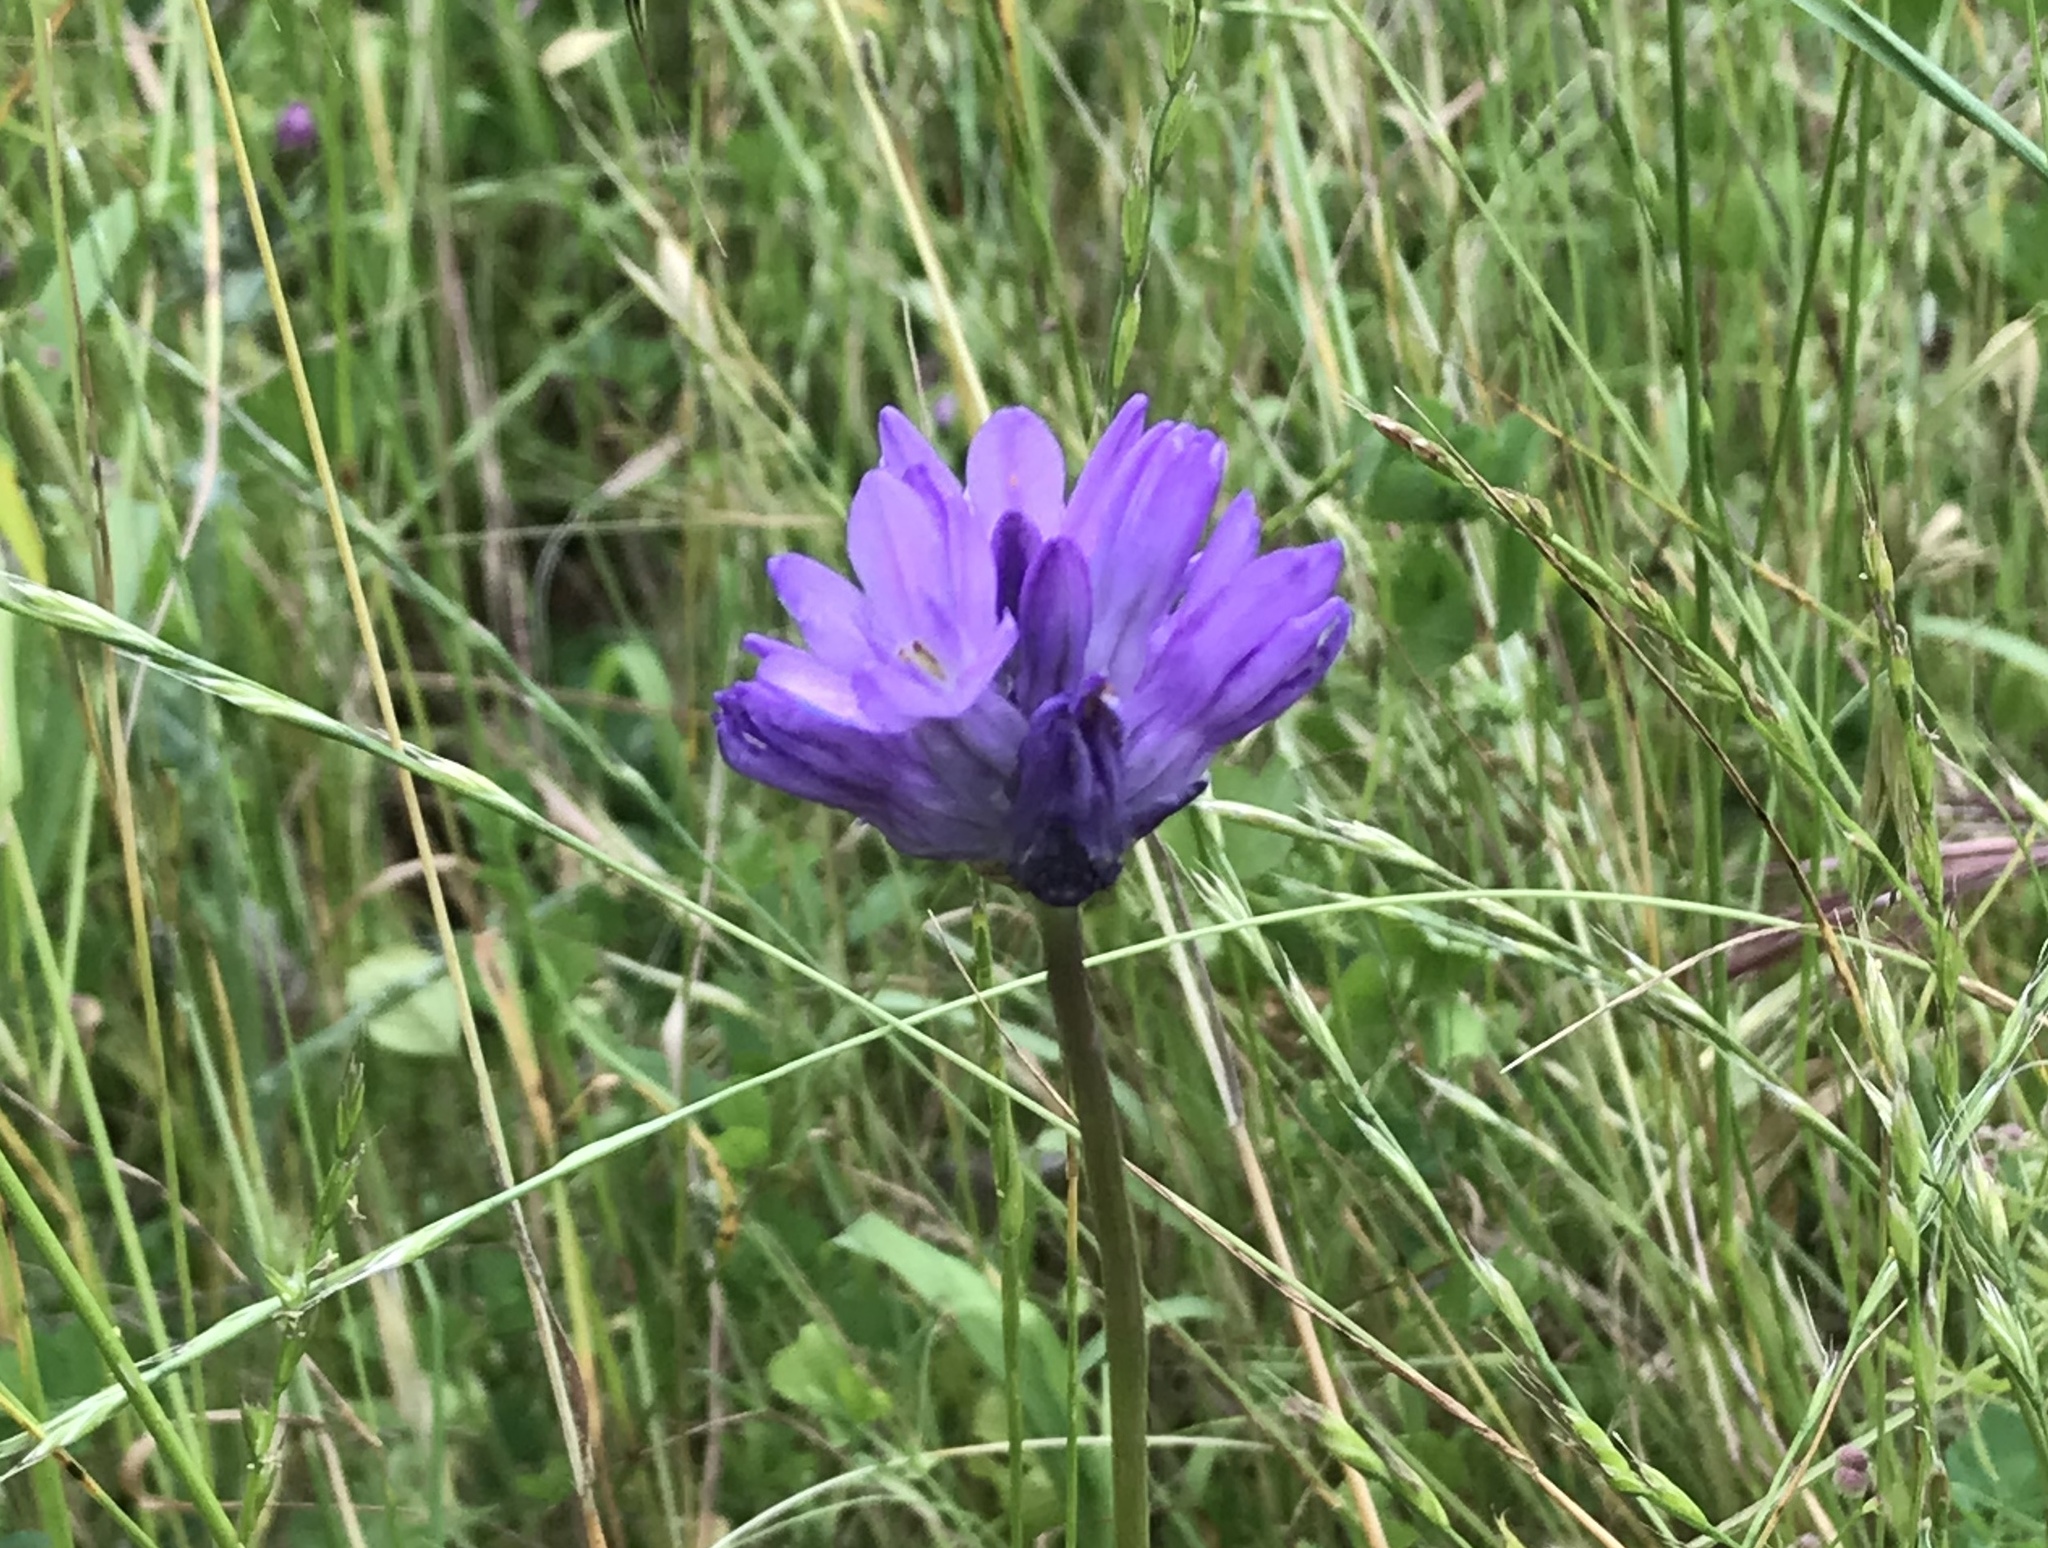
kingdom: Plantae
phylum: Tracheophyta
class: Liliopsida
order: Asparagales
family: Asparagaceae
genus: Dipterostemon
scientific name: Dipterostemon capitatus
